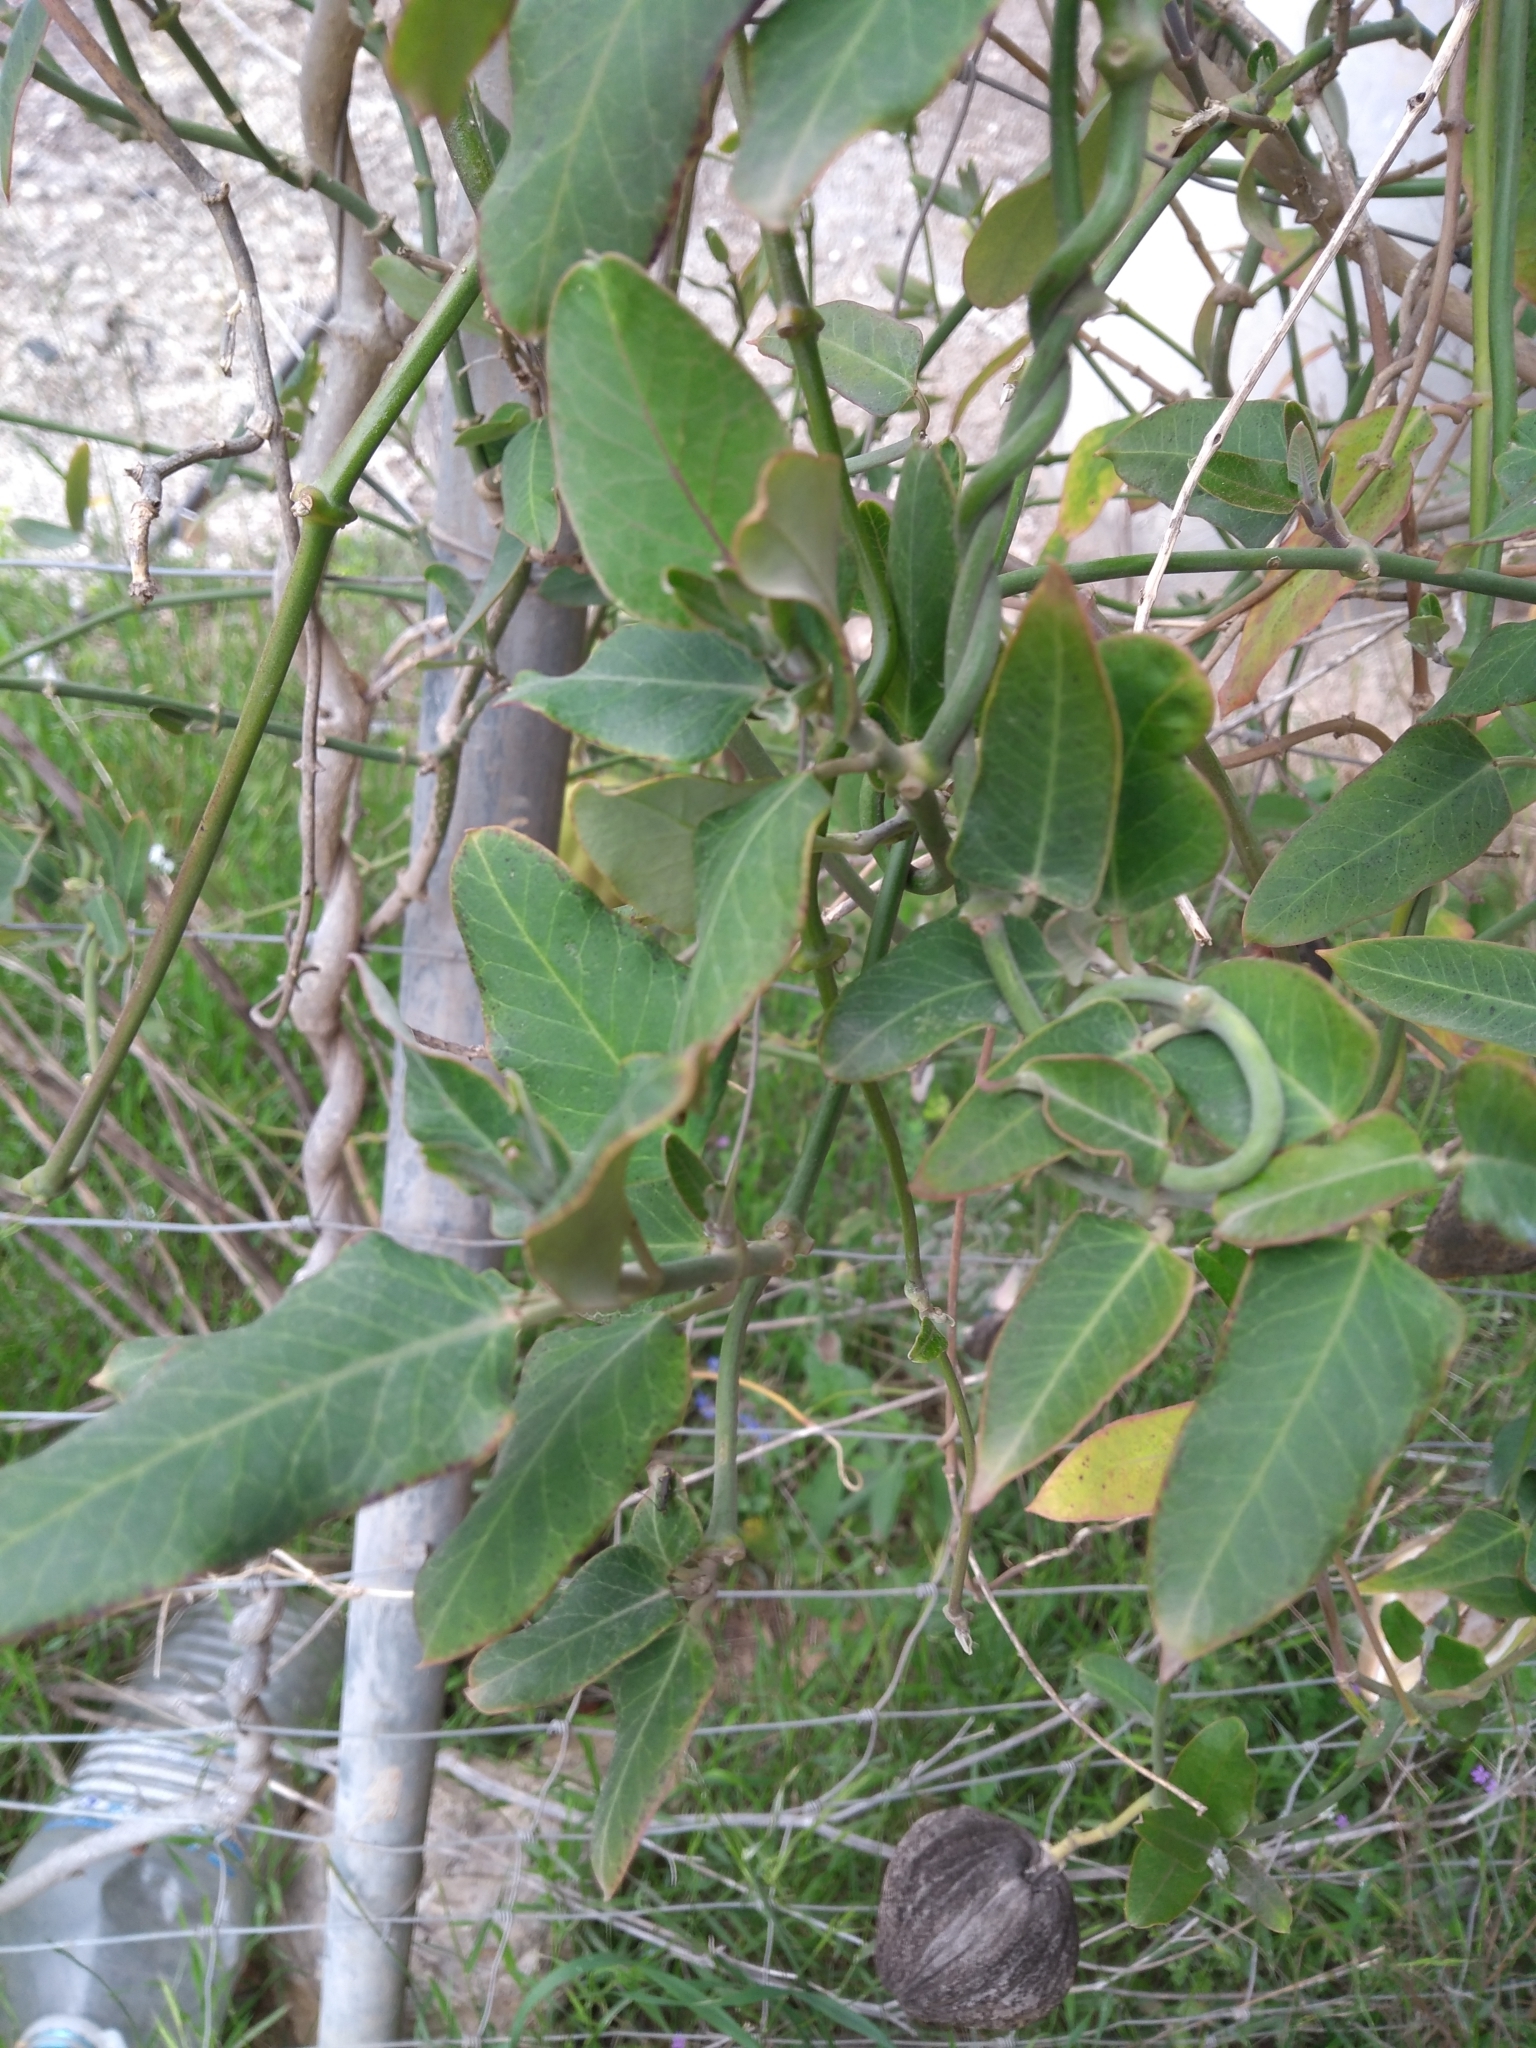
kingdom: Plantae
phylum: Tracheophyta
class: Magnoliopsida
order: Gentianales
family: Apocynaceae
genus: Araujia
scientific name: Araujia sericifera
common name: White bladderflower
